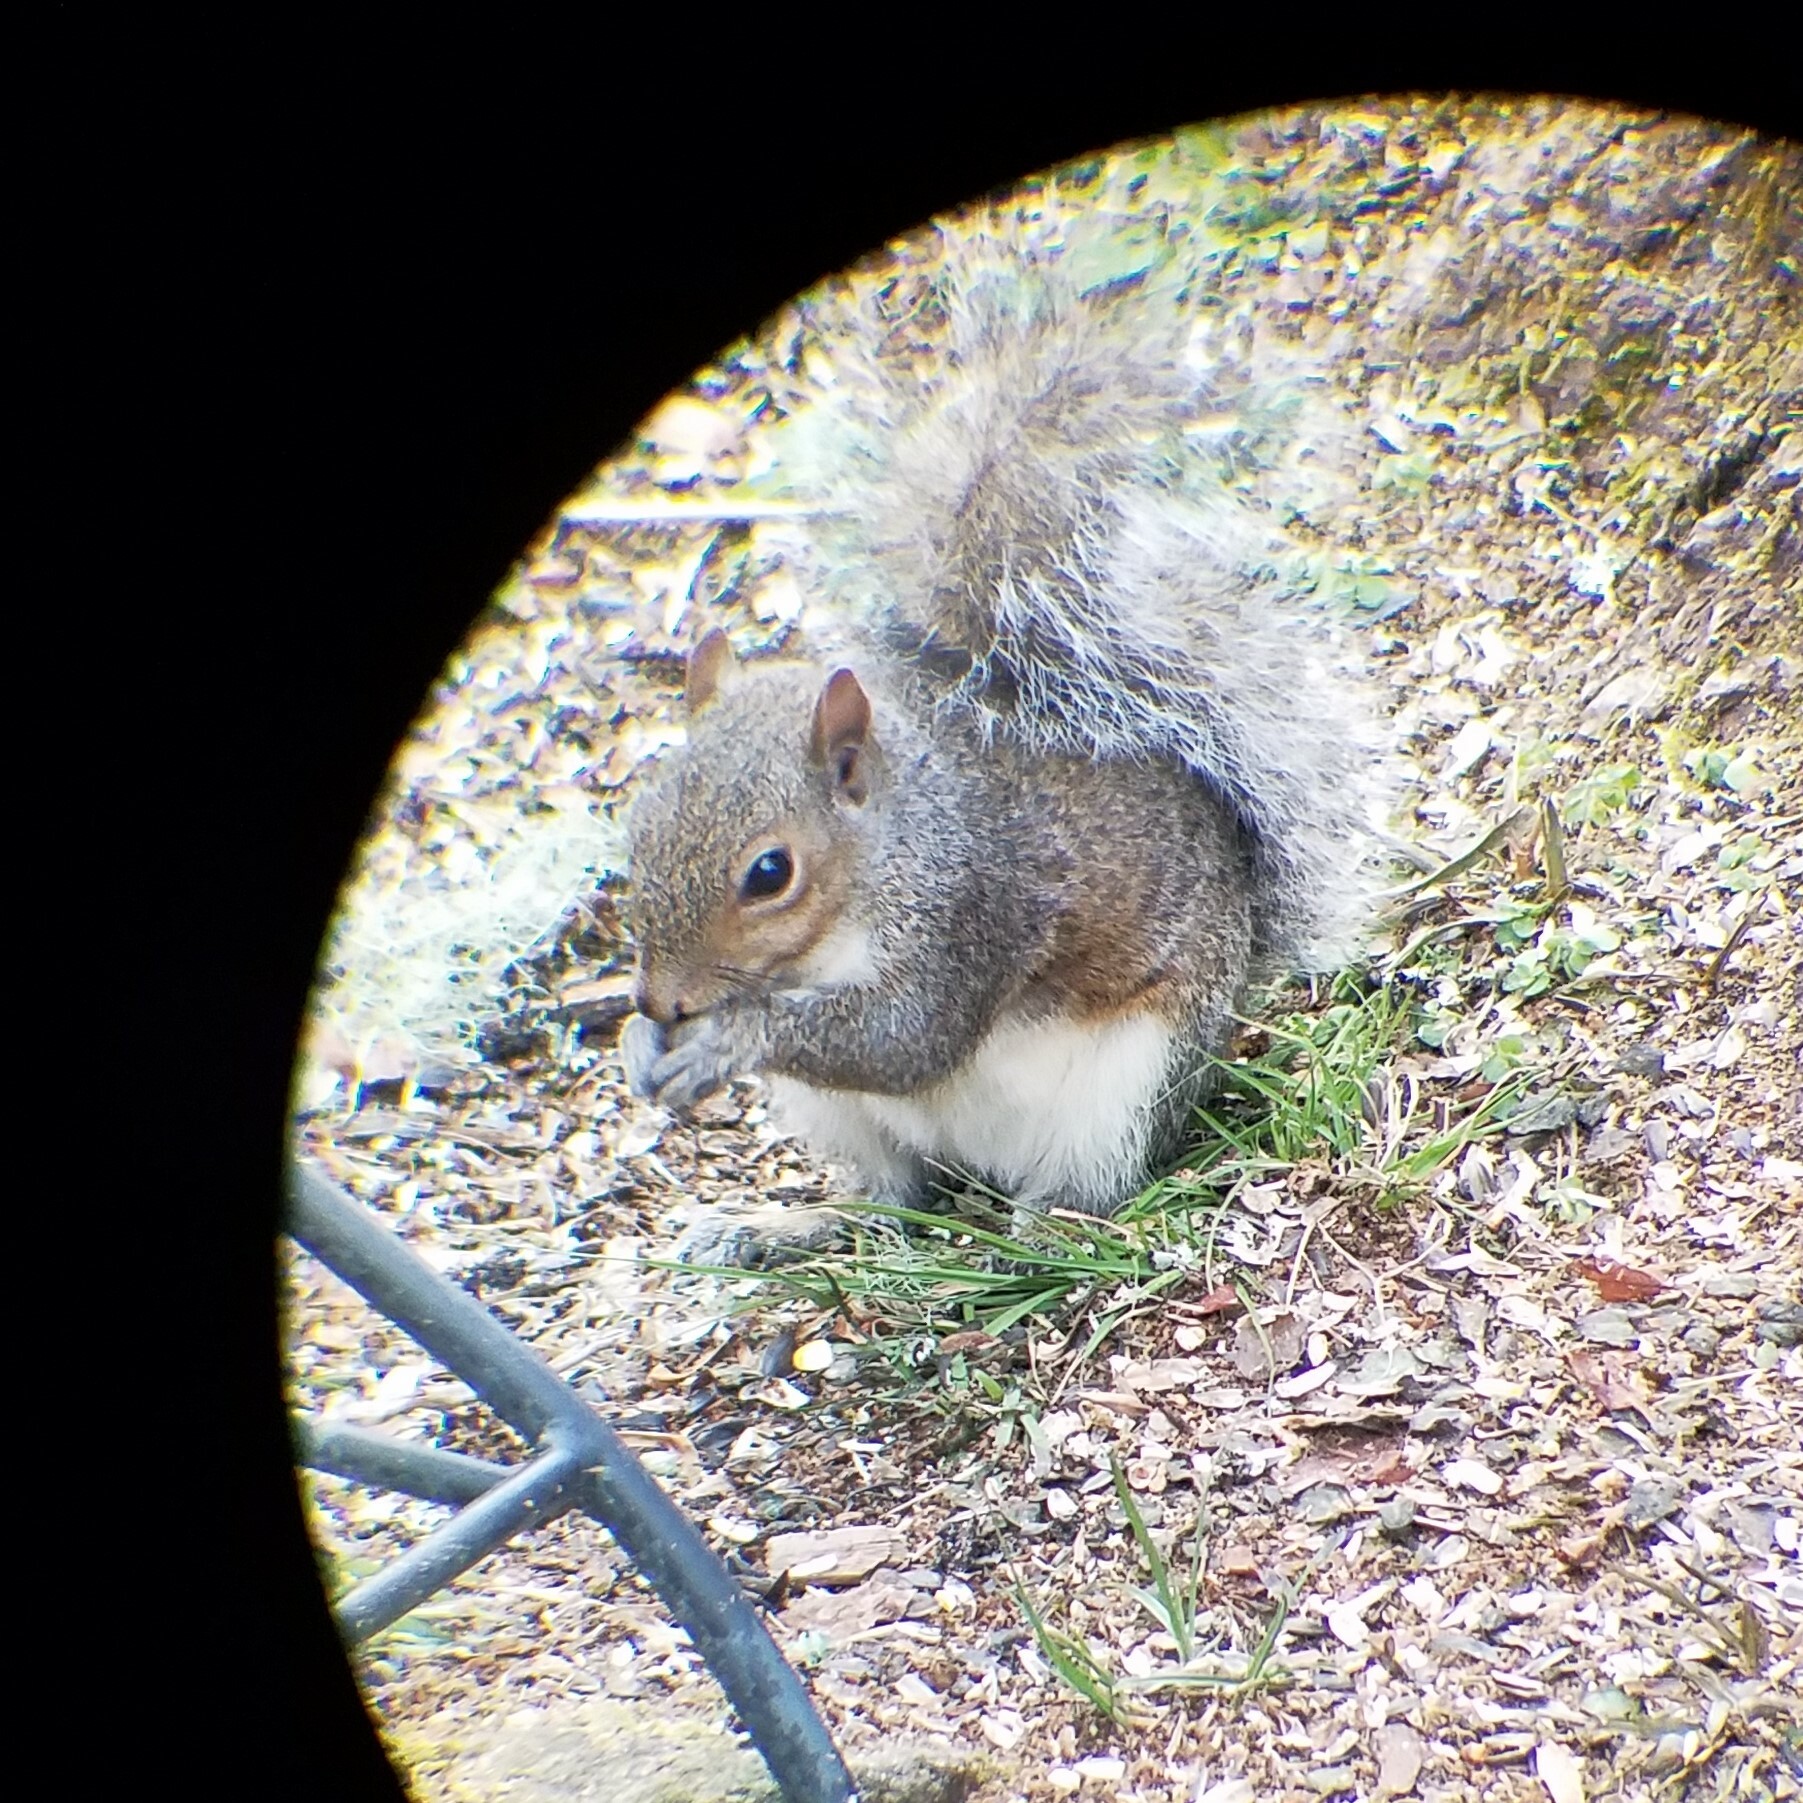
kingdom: Animalia
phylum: Chordata
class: Mammalia
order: Rodentia
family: Sciuridae
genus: Sciurus
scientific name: Sciurus carolinensis
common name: Eastern gray squirrel
